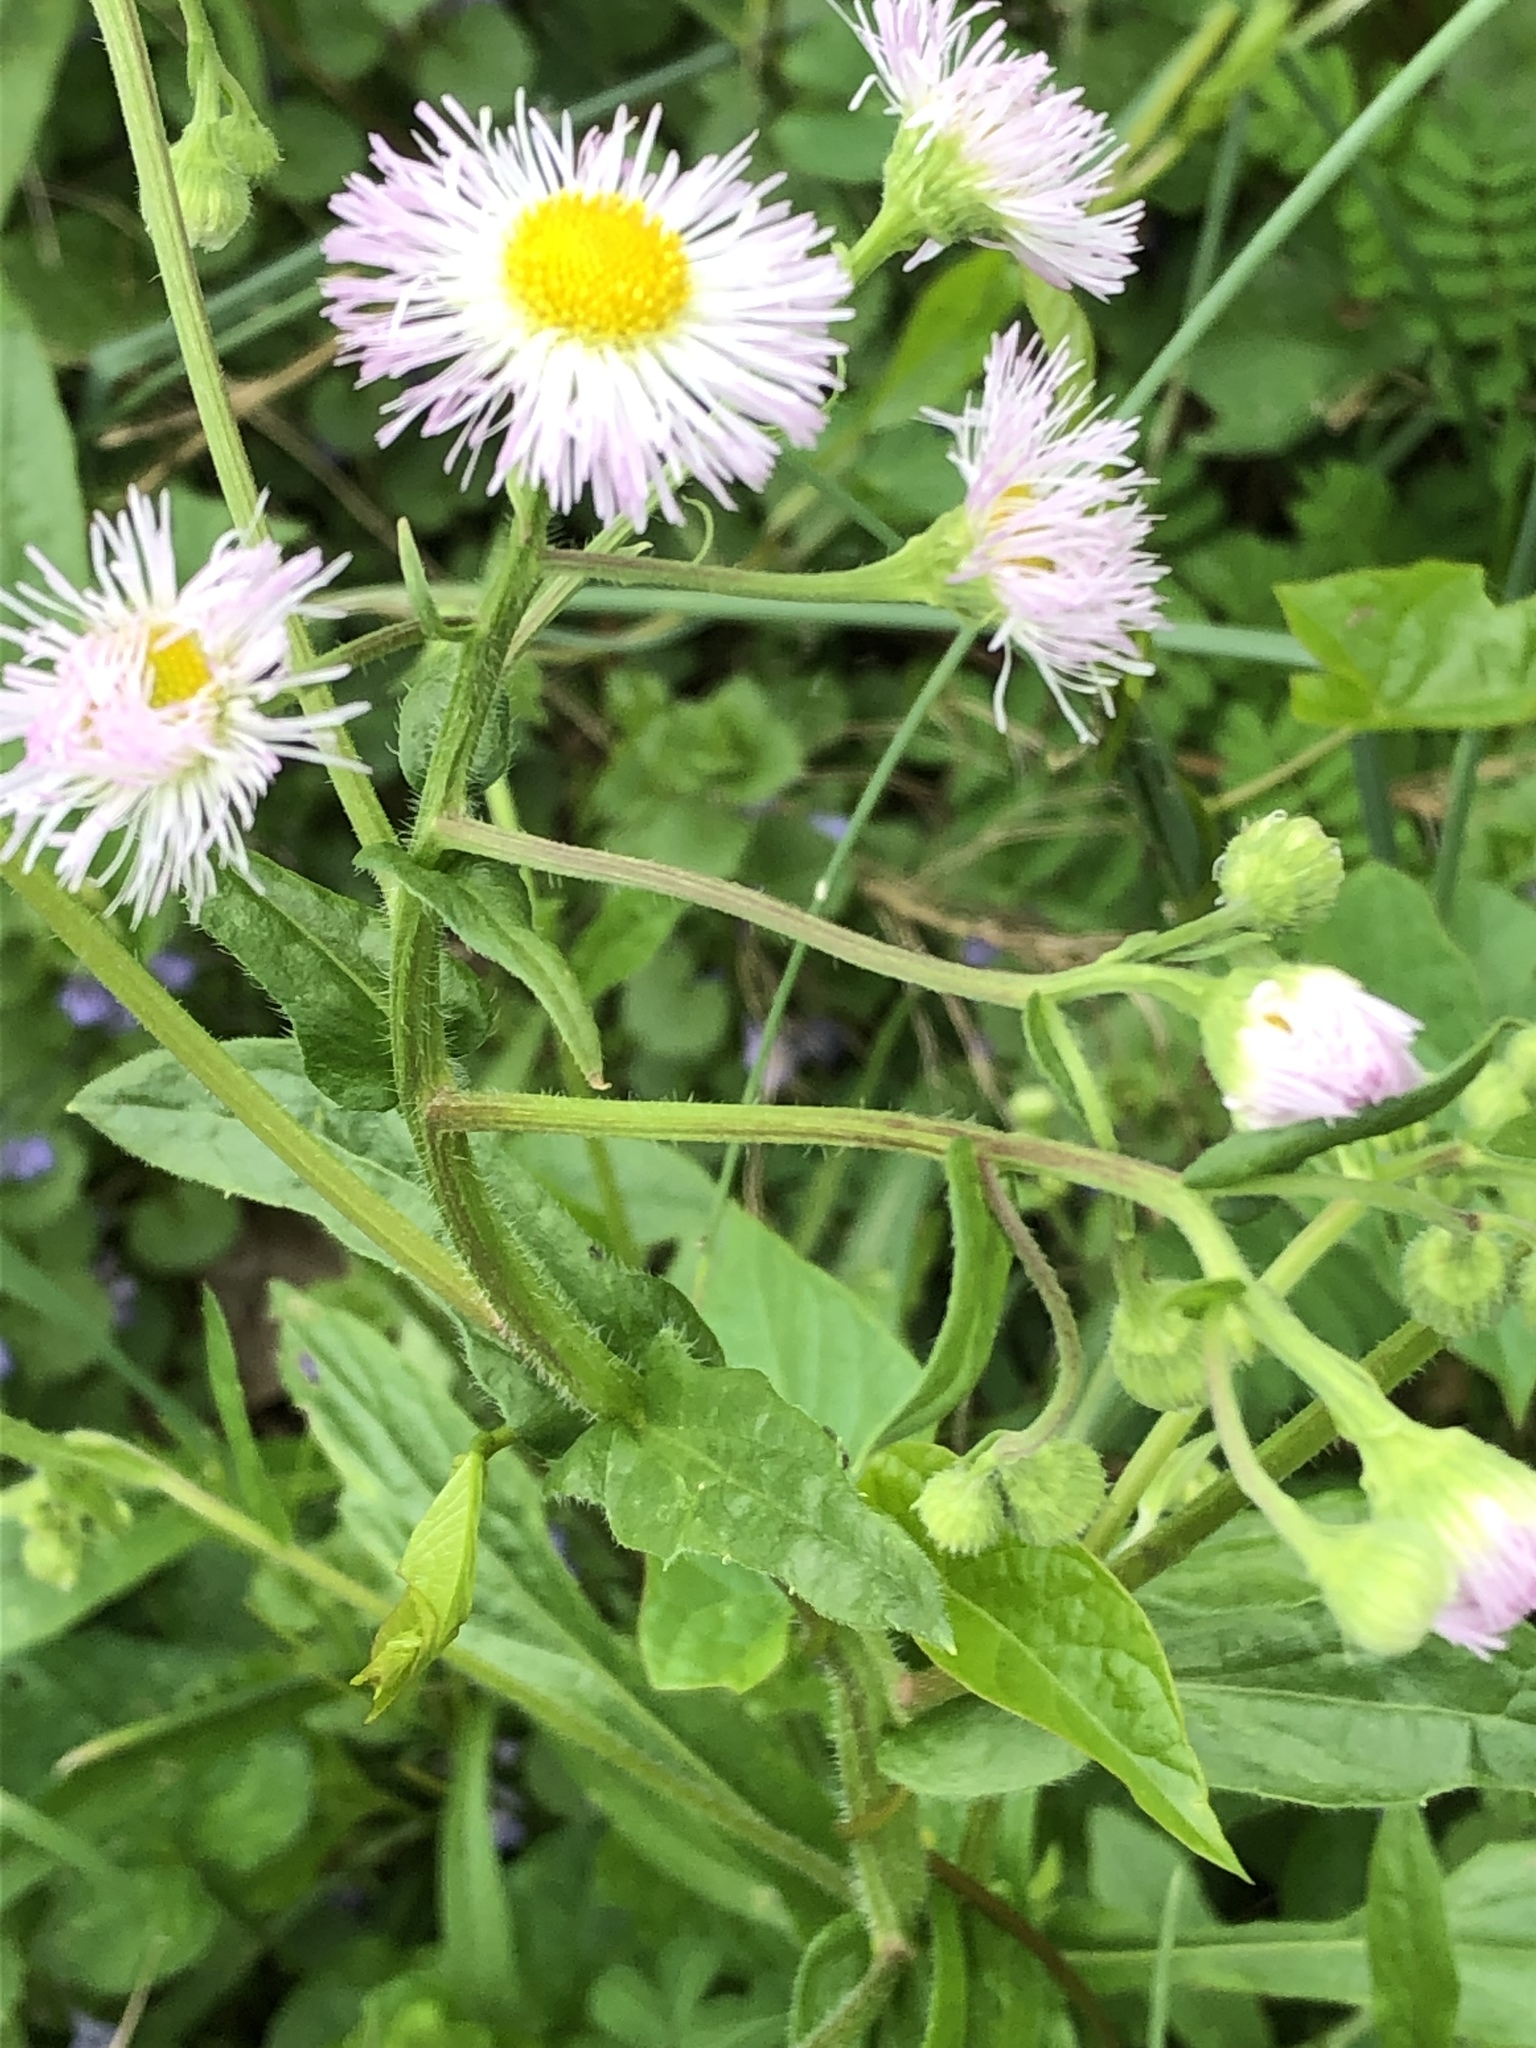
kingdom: Plantae
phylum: Tracheophyta
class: Magnoliopsida
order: Asterales
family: Asteraceae
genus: Erigeron
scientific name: Erigeron philadelphicus
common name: Robin's-plantain
